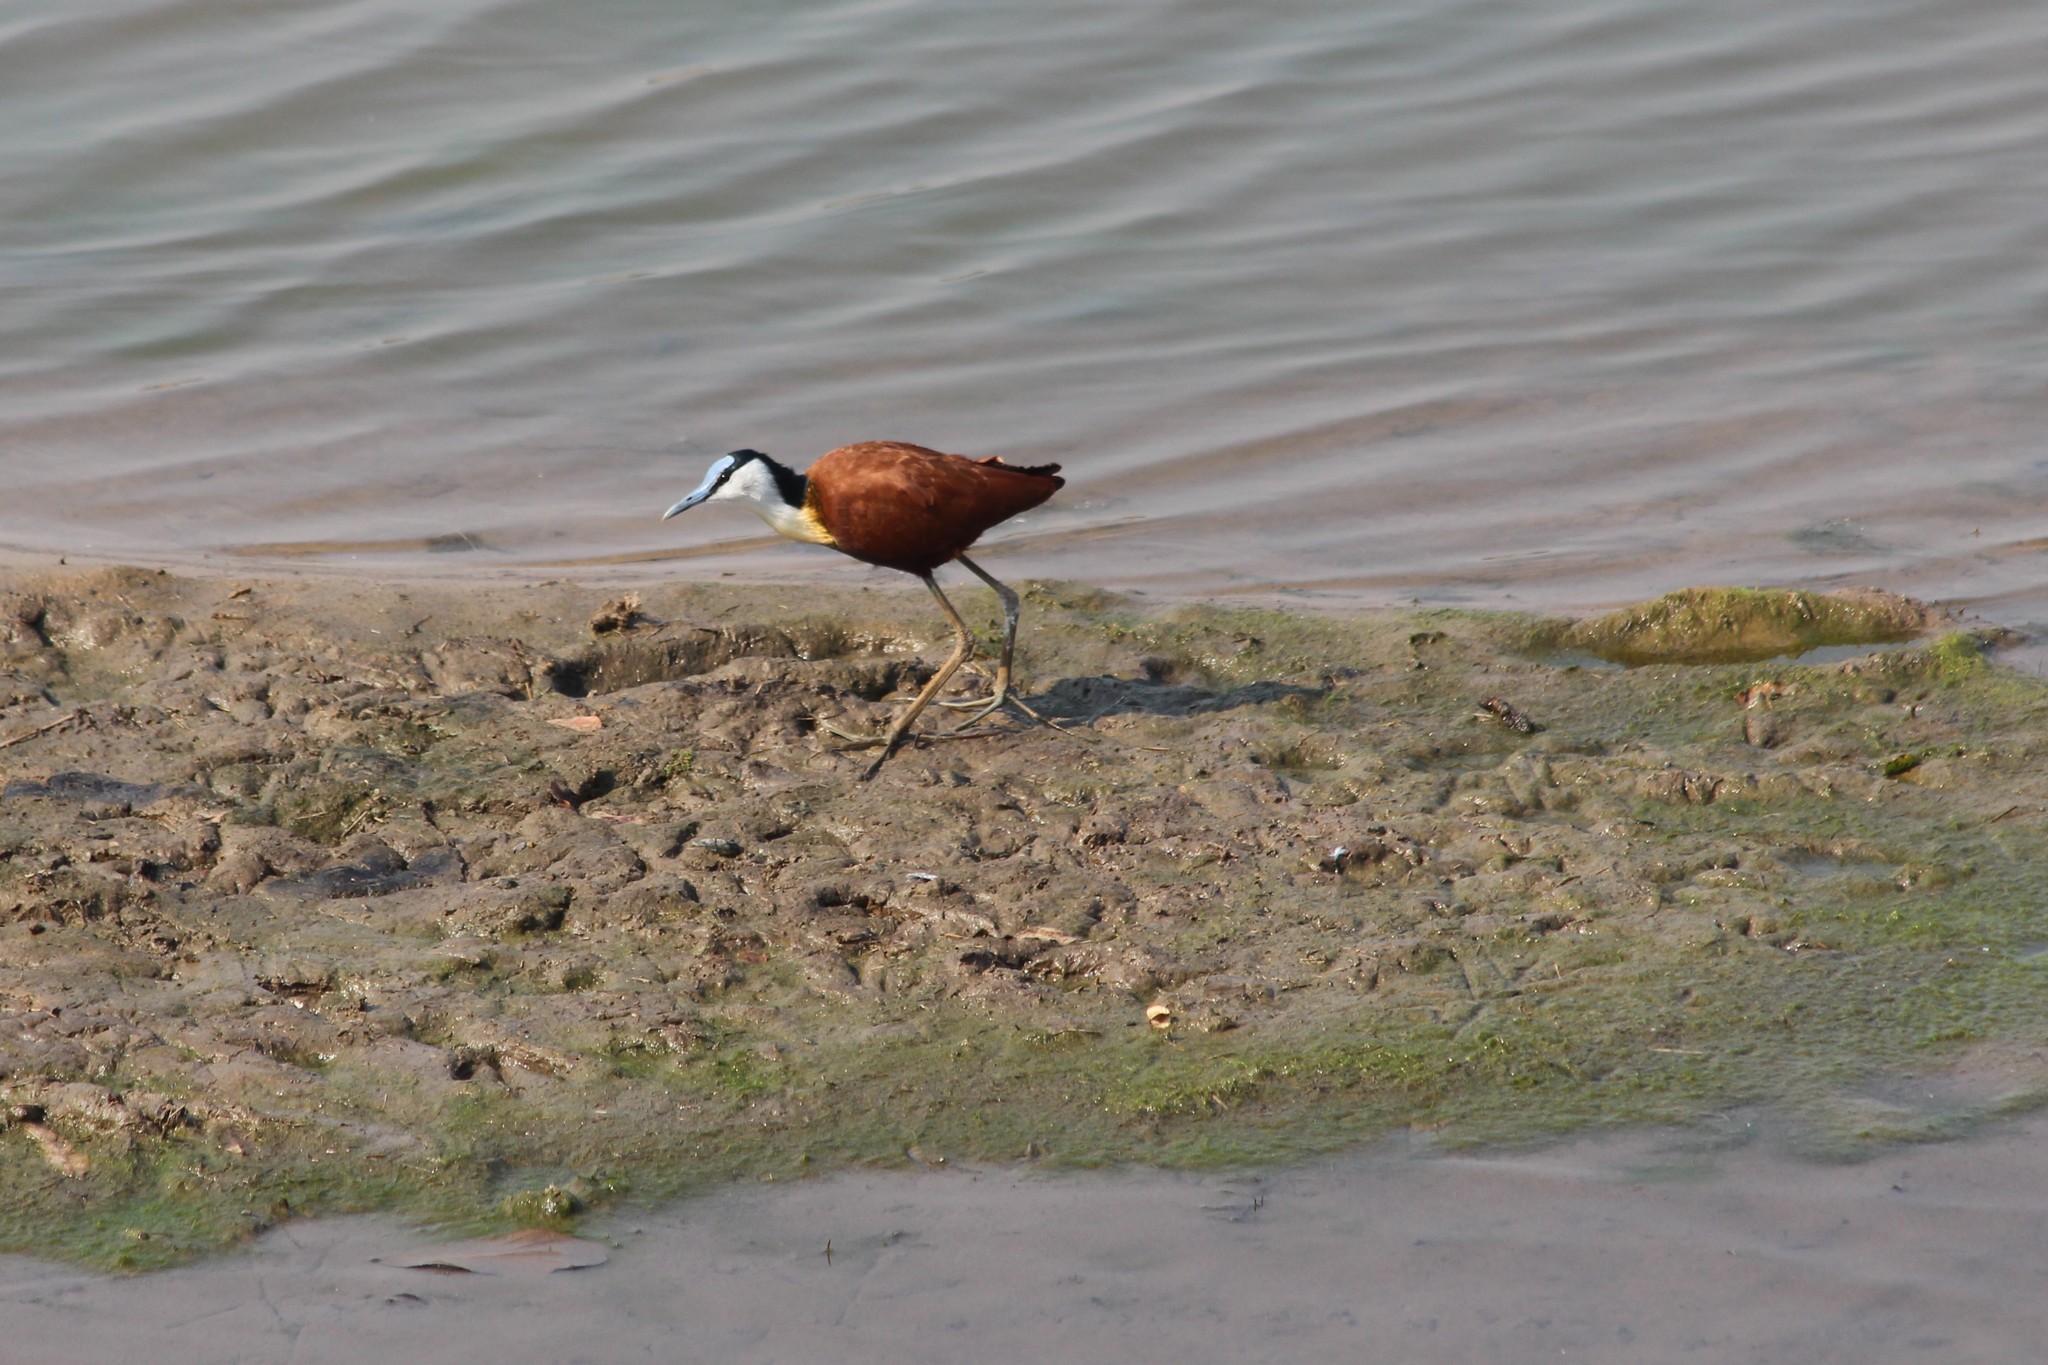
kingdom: Animalia
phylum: Chordata
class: Aves
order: Charadriiformes
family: Jacanidae
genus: Actophilornis
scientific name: Actophilornis africanus
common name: African jacana
